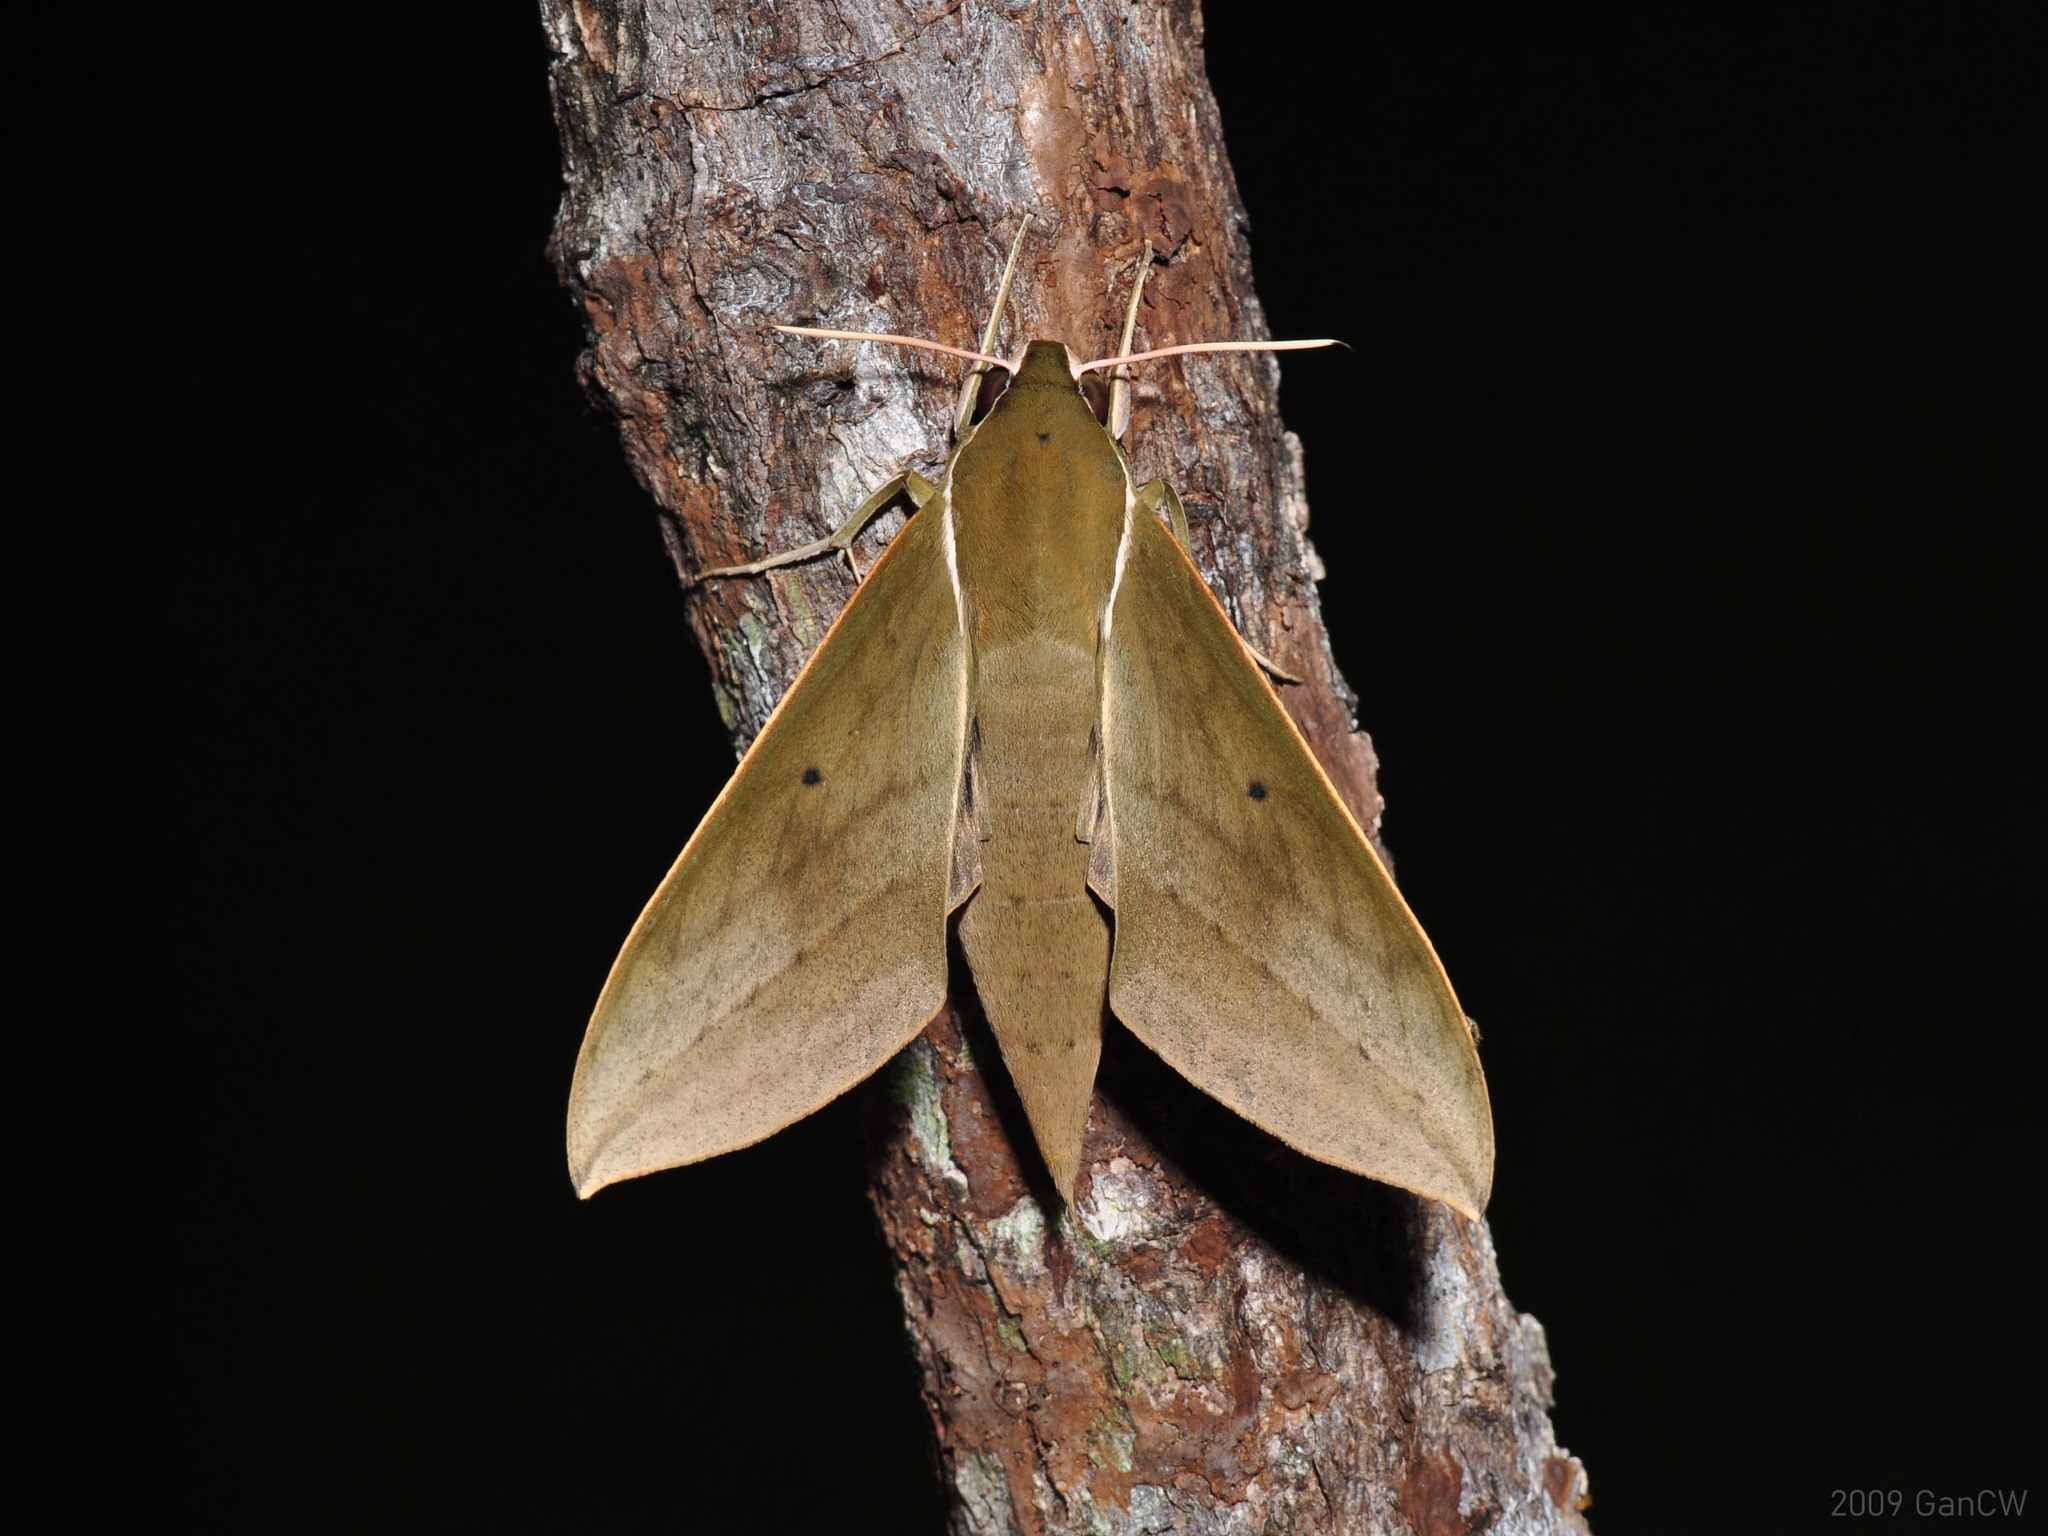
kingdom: Animalia
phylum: Arthropoda
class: Insecta
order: Lepidoptera
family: Sphingidae
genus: Theretra
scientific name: Theretra boisduvalii
